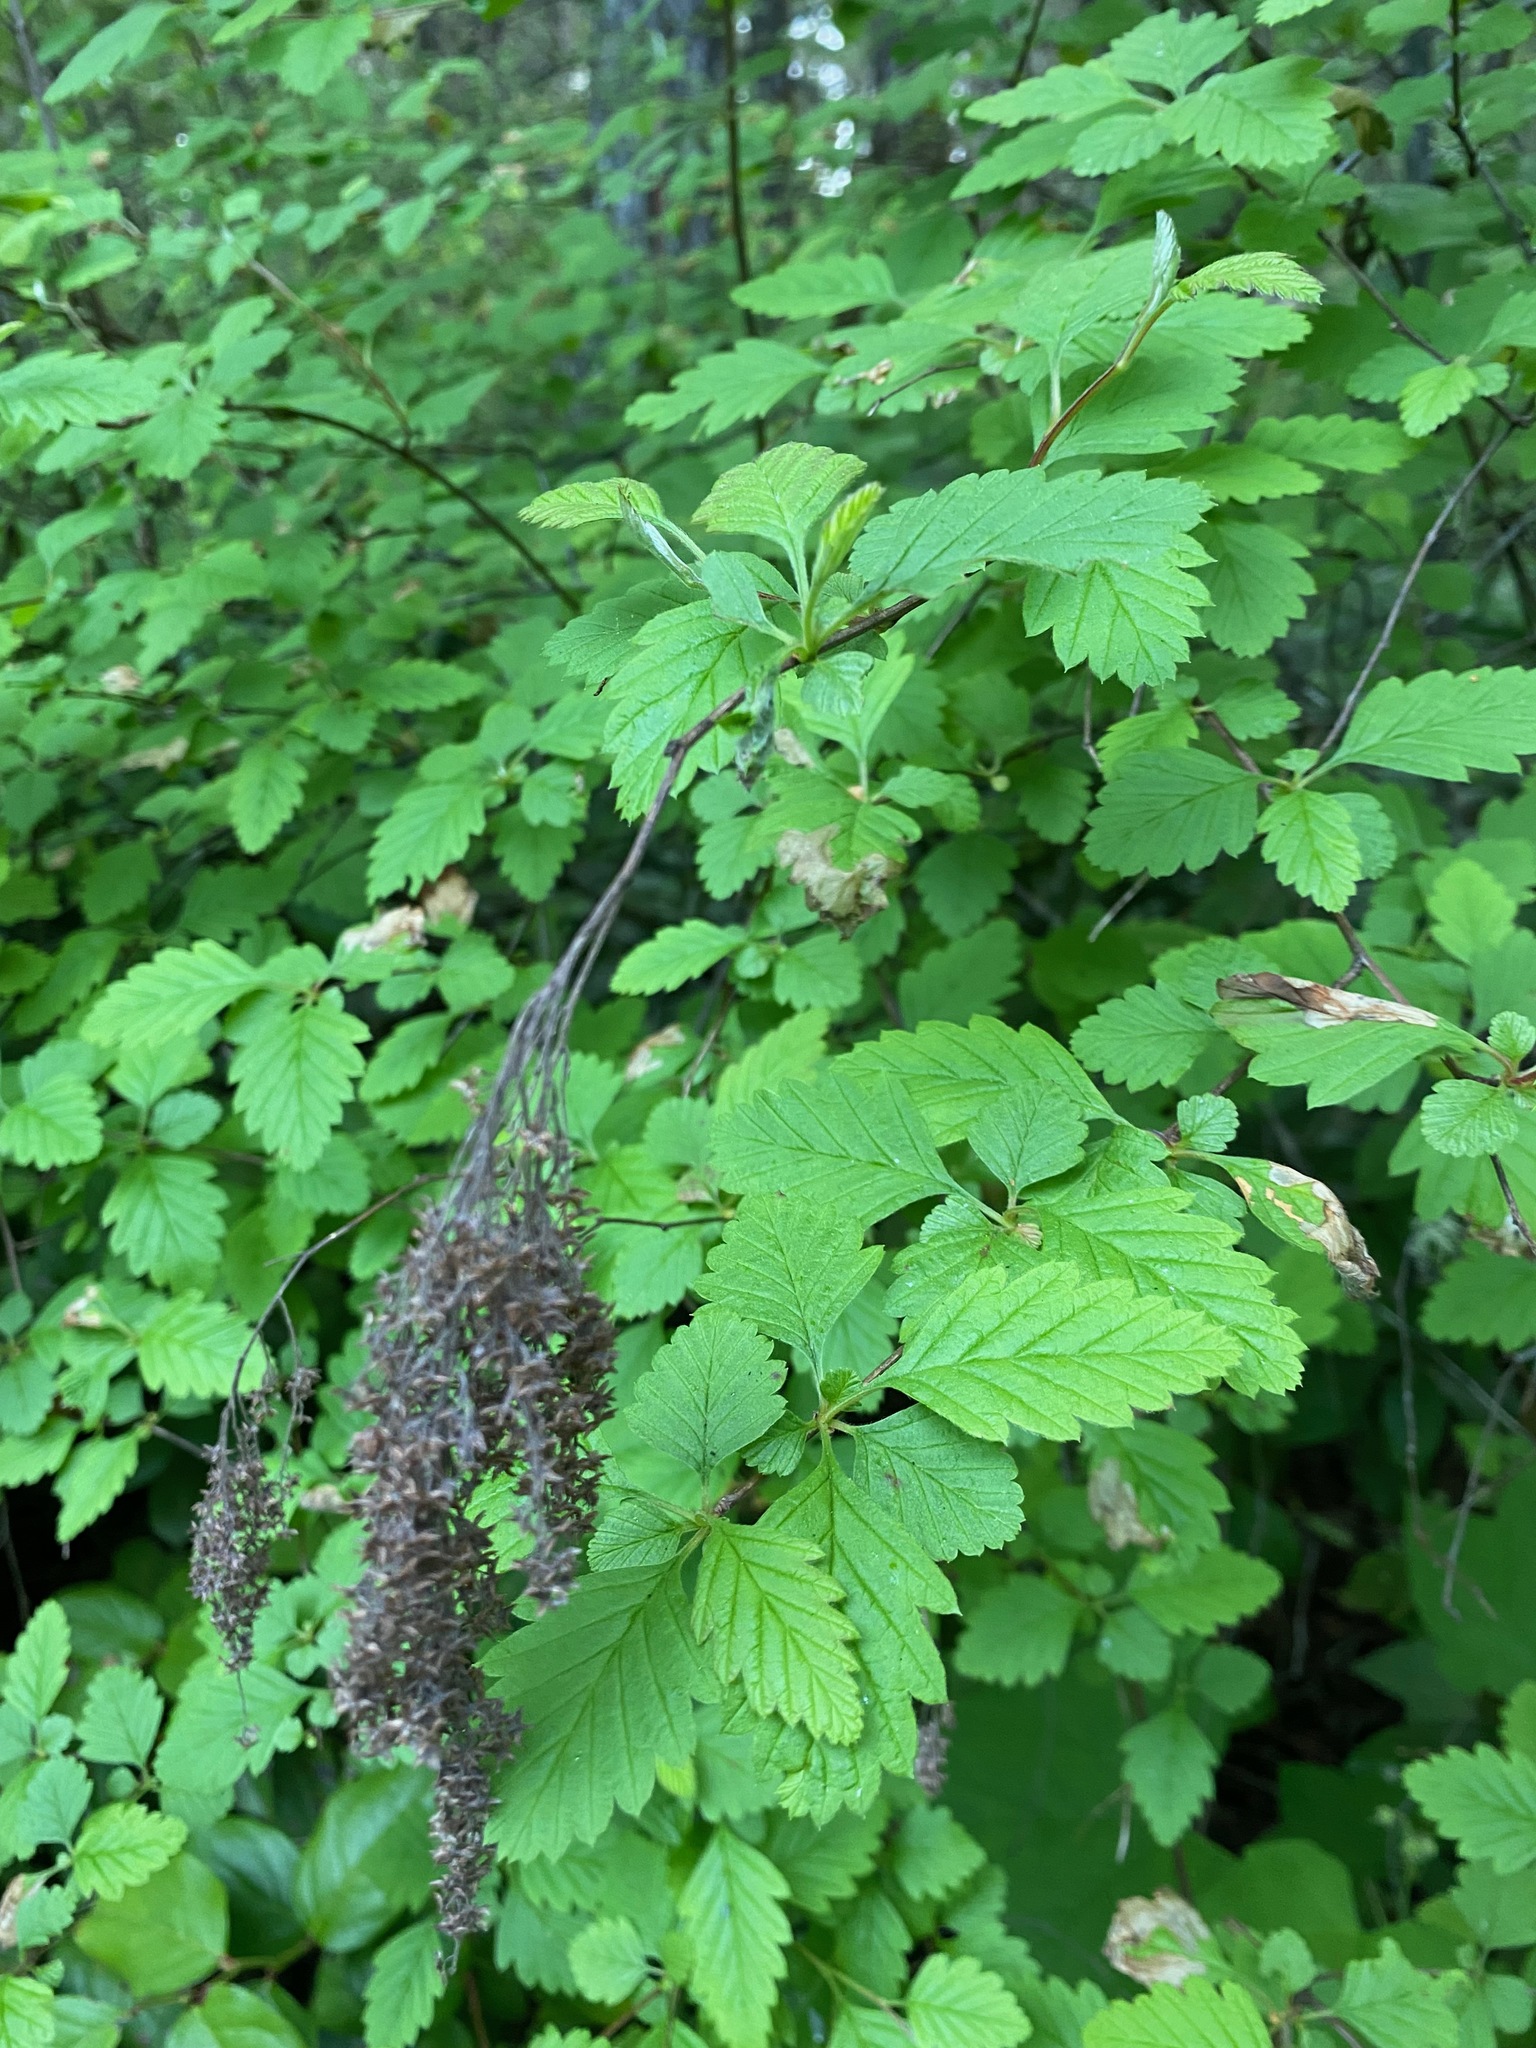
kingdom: Plantae
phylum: Tracheophyta
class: Magnoliopsida
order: Rosales
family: Rosaceae
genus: Holodiscus
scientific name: Holodiscus discolor
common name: Oceanspray
